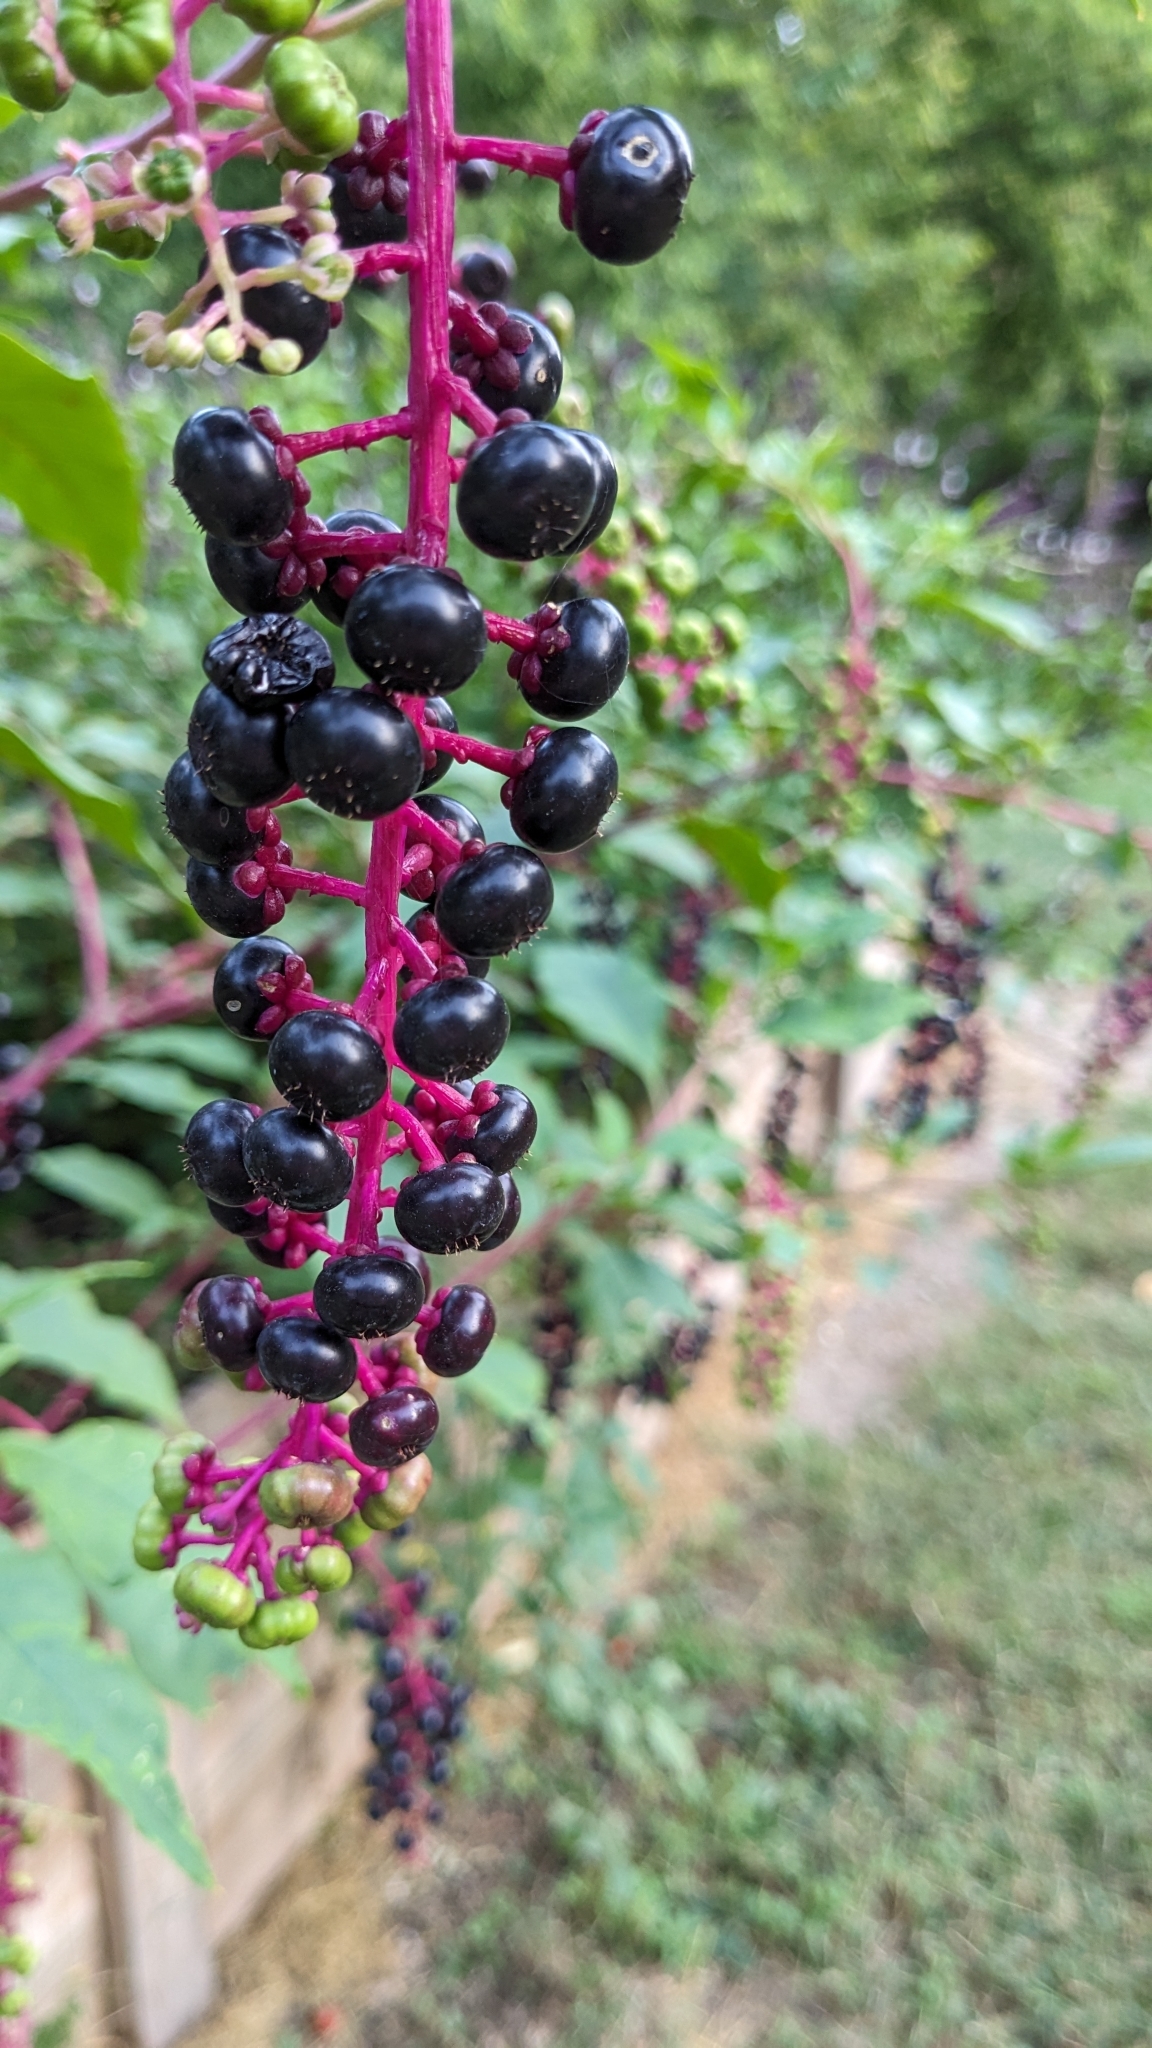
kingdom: Plantae
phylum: Tracheophyta
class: Magnoliopsida
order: Caryophyllales
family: Phytolaccaceae
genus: Phytolacca
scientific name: Phytolacca americana
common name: American pokeweed
